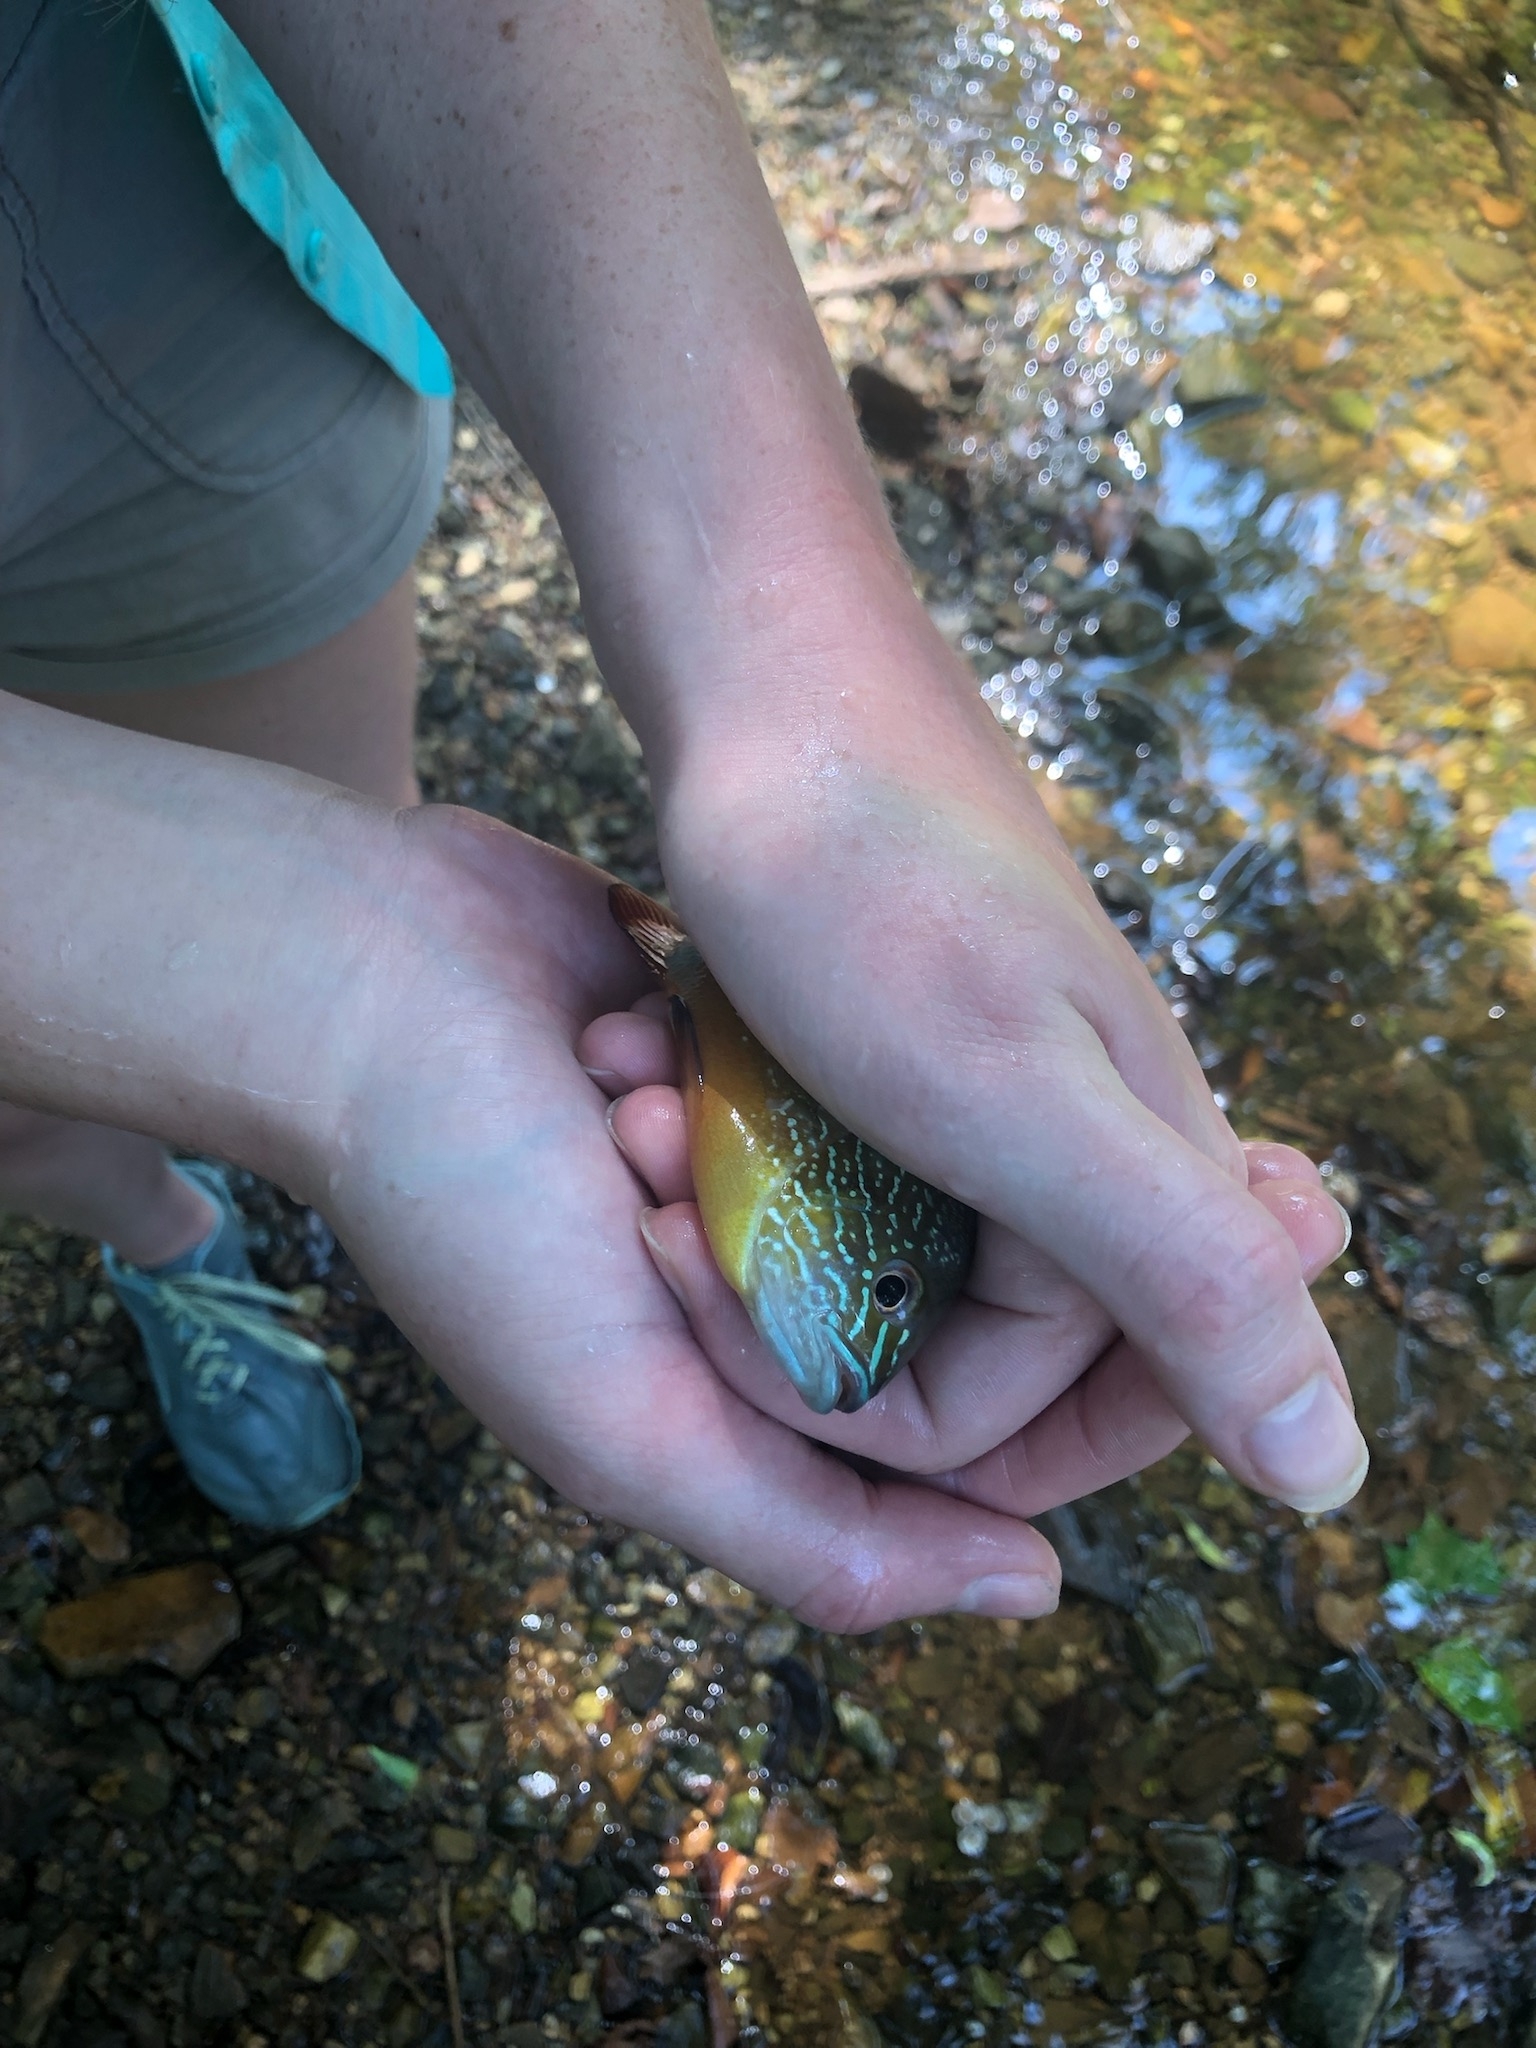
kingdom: Animalia
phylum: Chordata
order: Perciformes
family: Centrarchidae
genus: Lepomis
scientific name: Lepomis megalotis
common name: Longear sunfish
